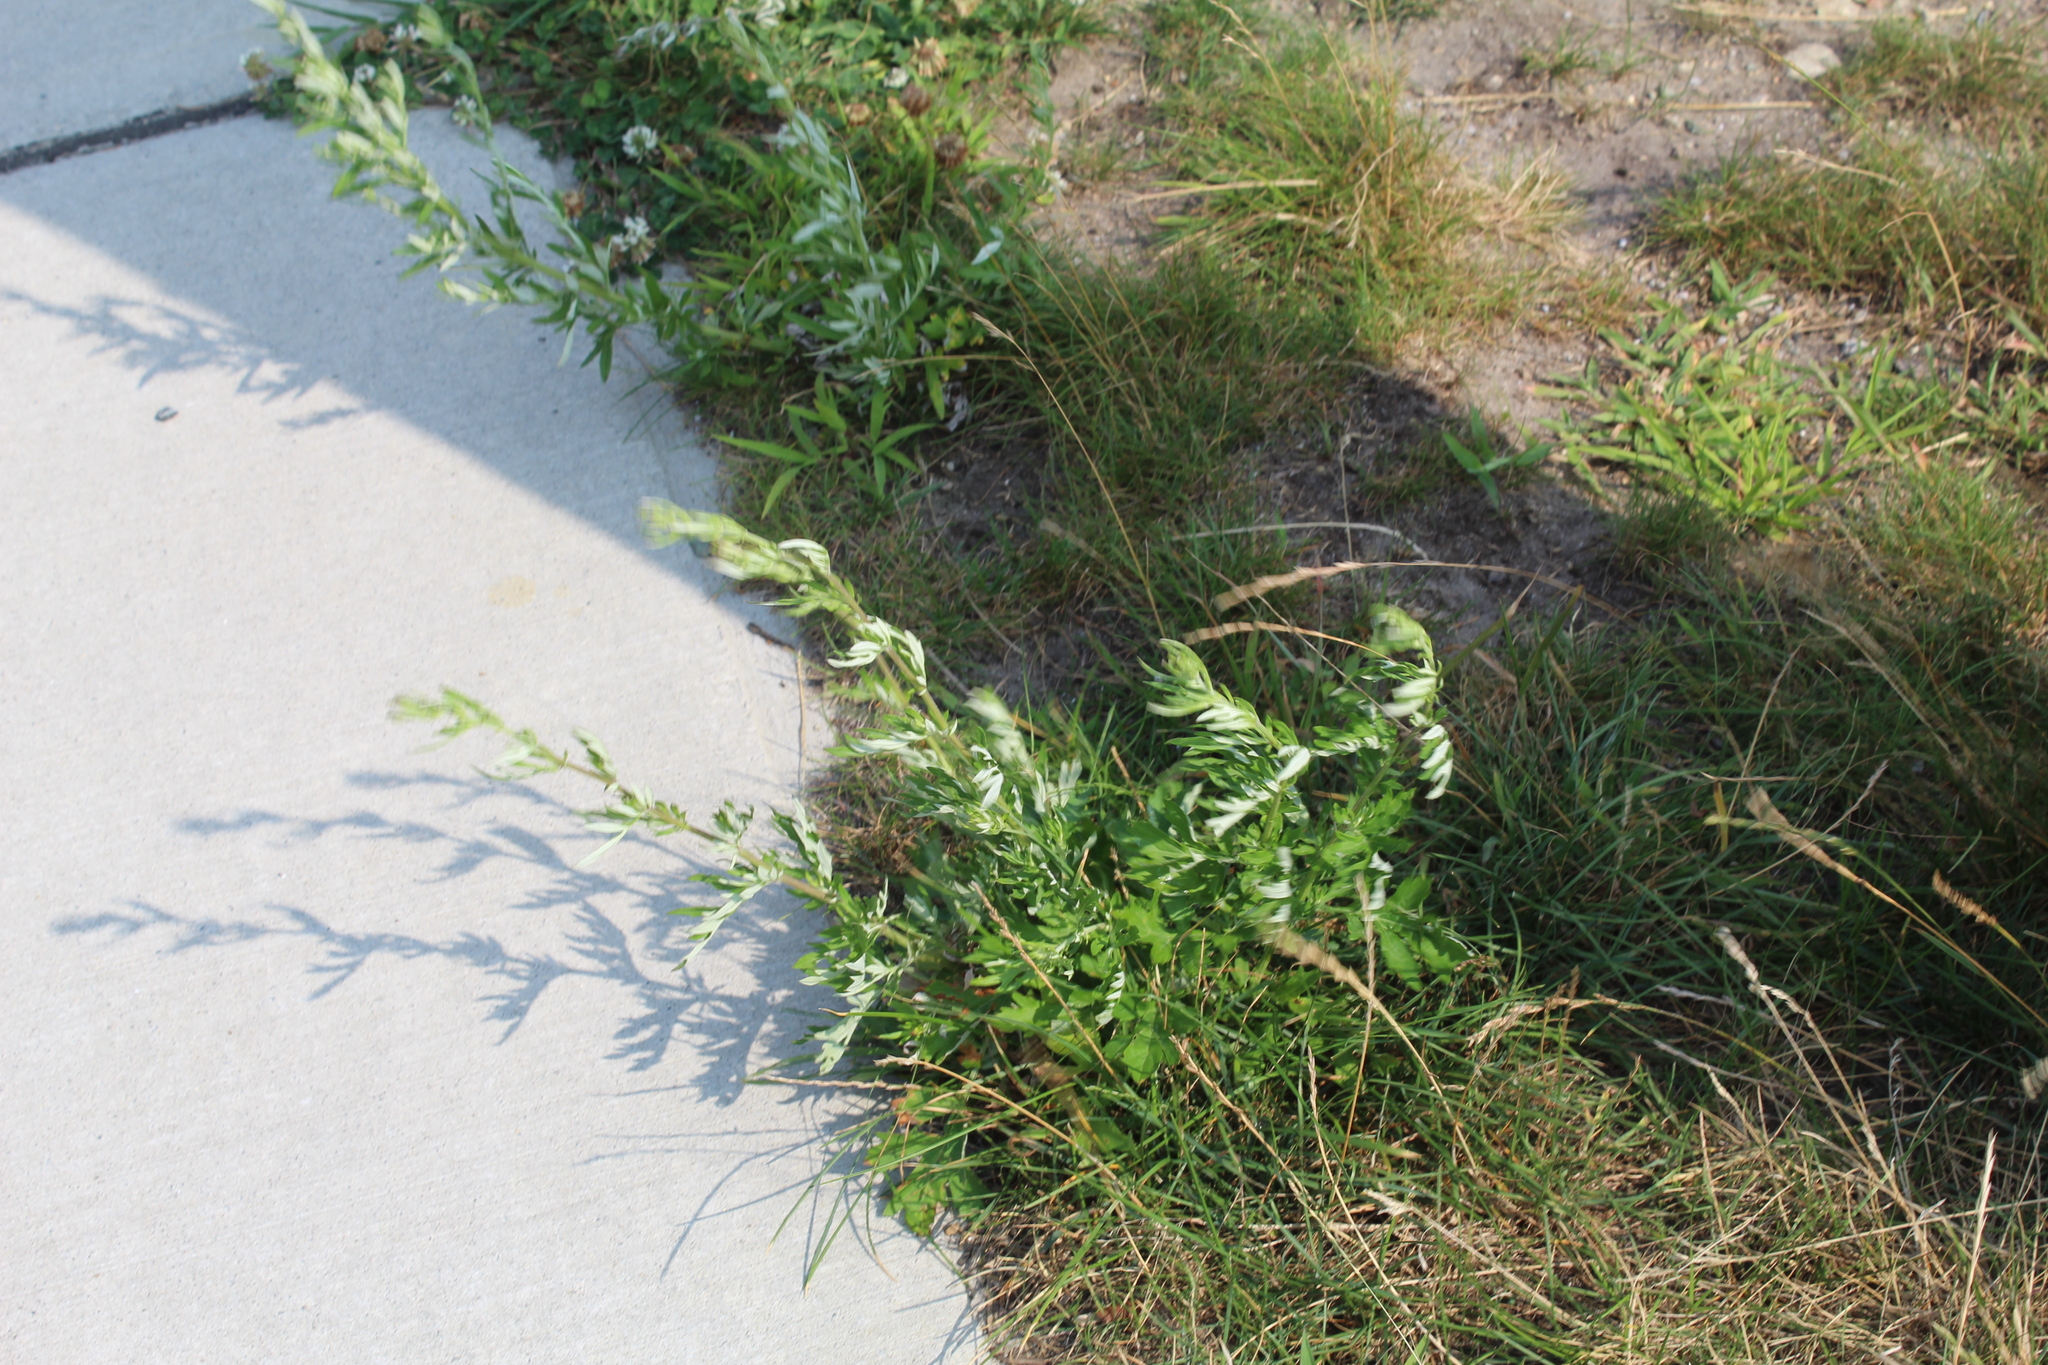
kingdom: Plantae
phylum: Tracheophyta
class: Magnoliopsida
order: Asterales
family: Asteraceae
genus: Artemisia
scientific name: Artemisia vulgaris
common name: Mugwort
